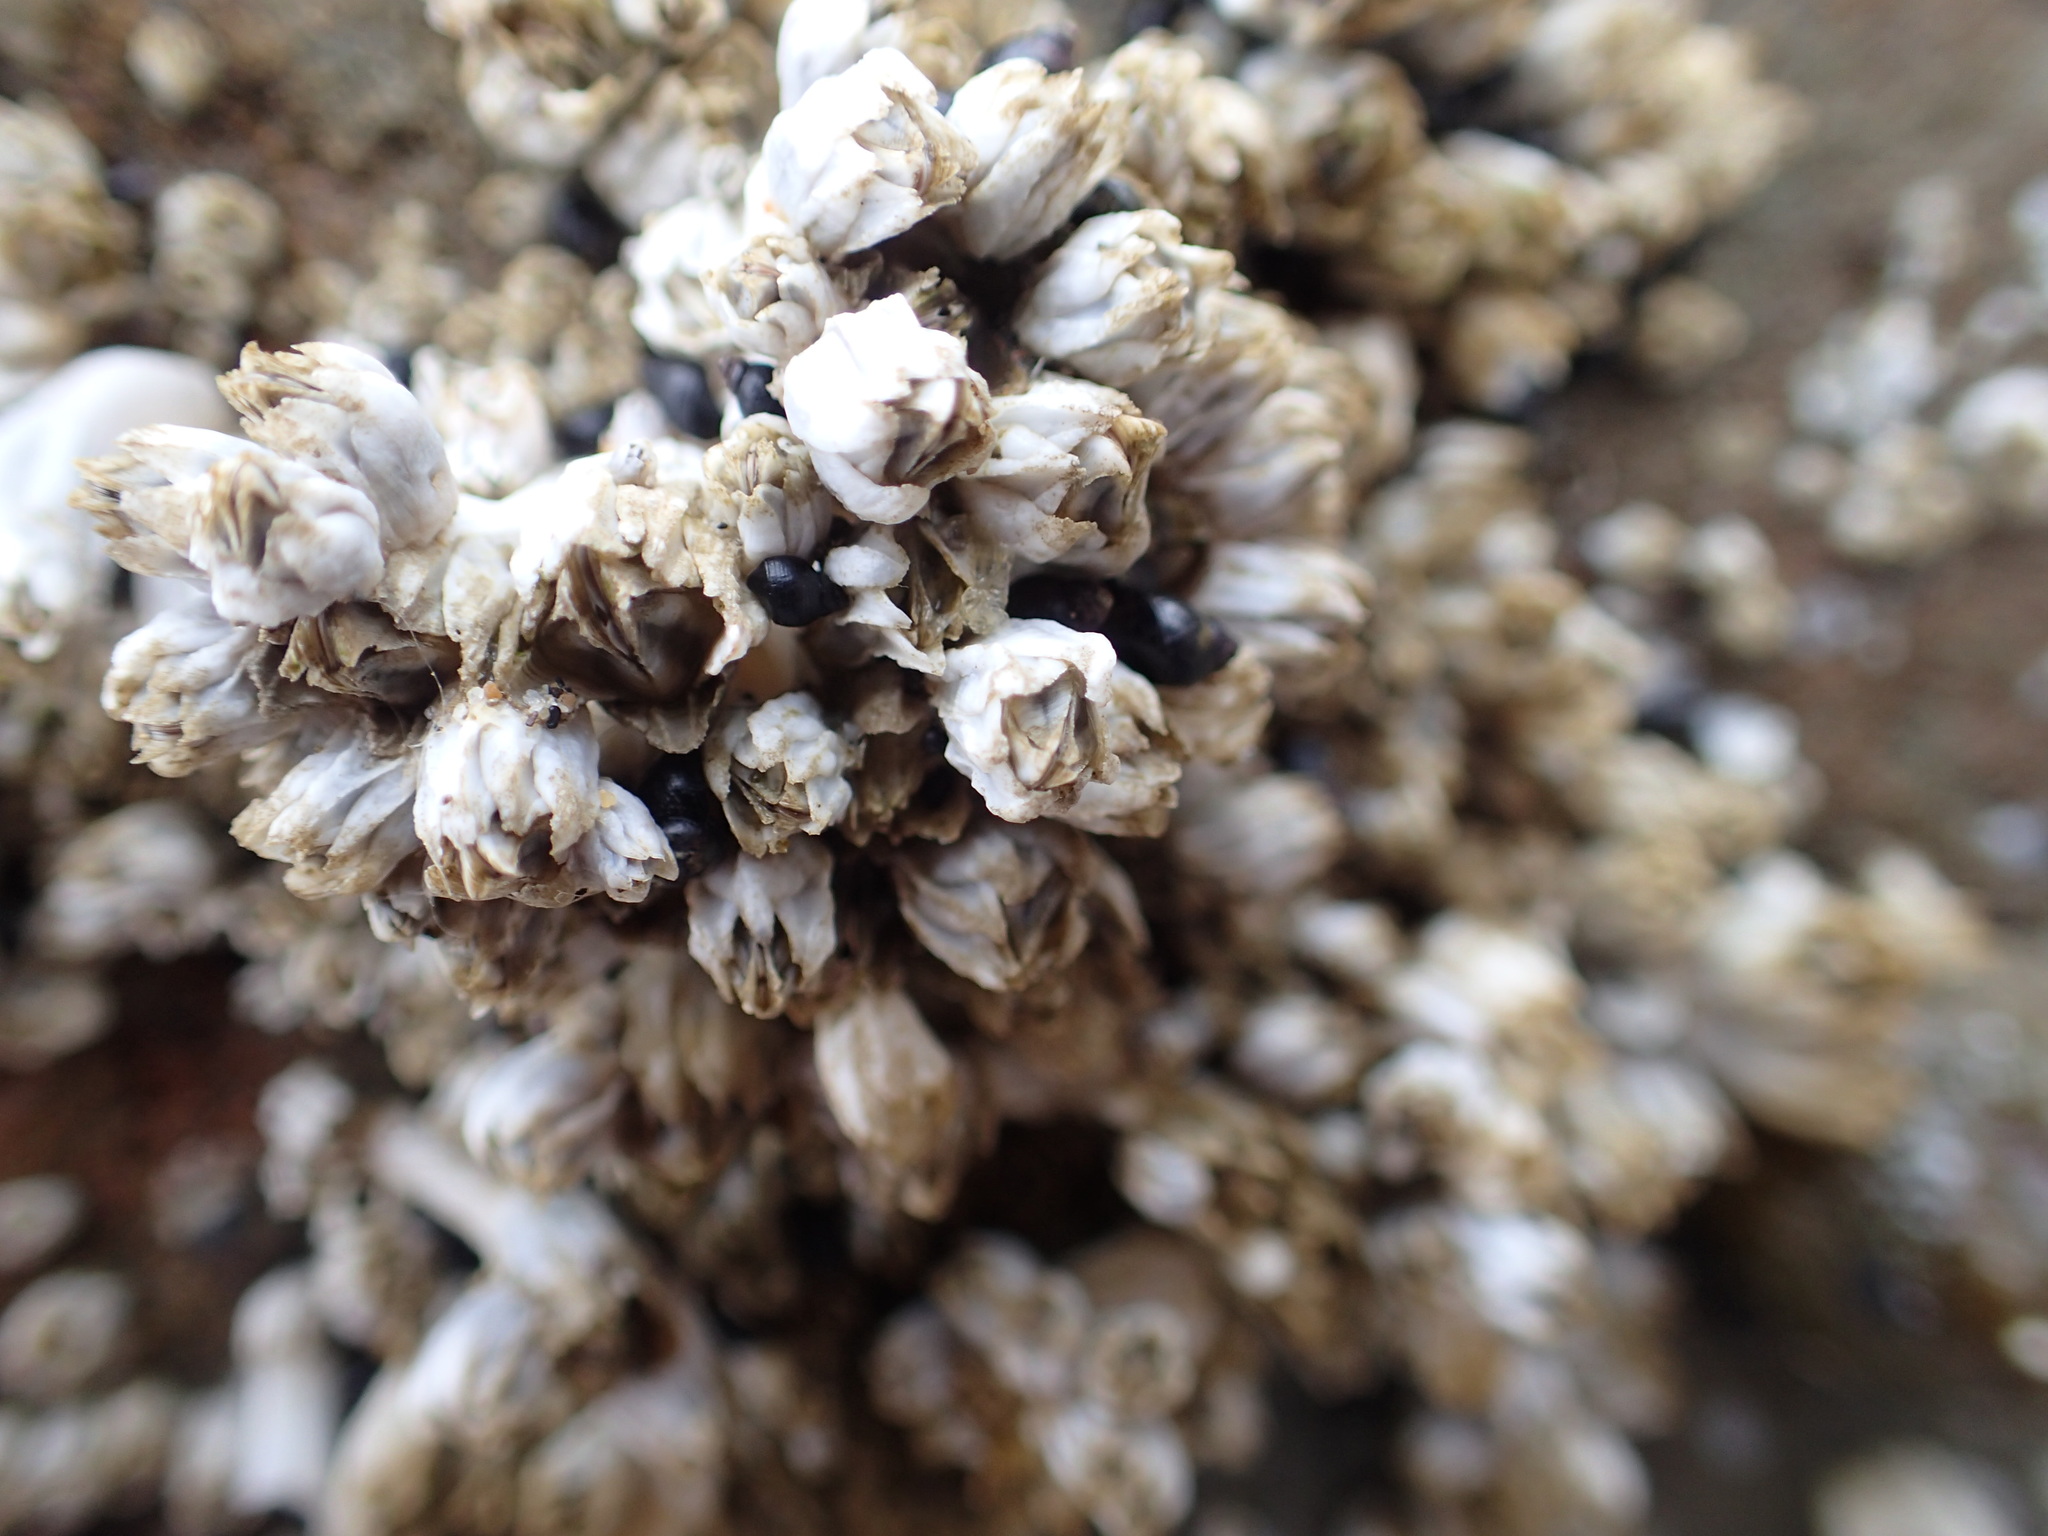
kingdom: Animalia
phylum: Arthropoda
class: Maxillopoda
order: Sessilia
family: Balanidae
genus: Balanus
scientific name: Balanus glandula
